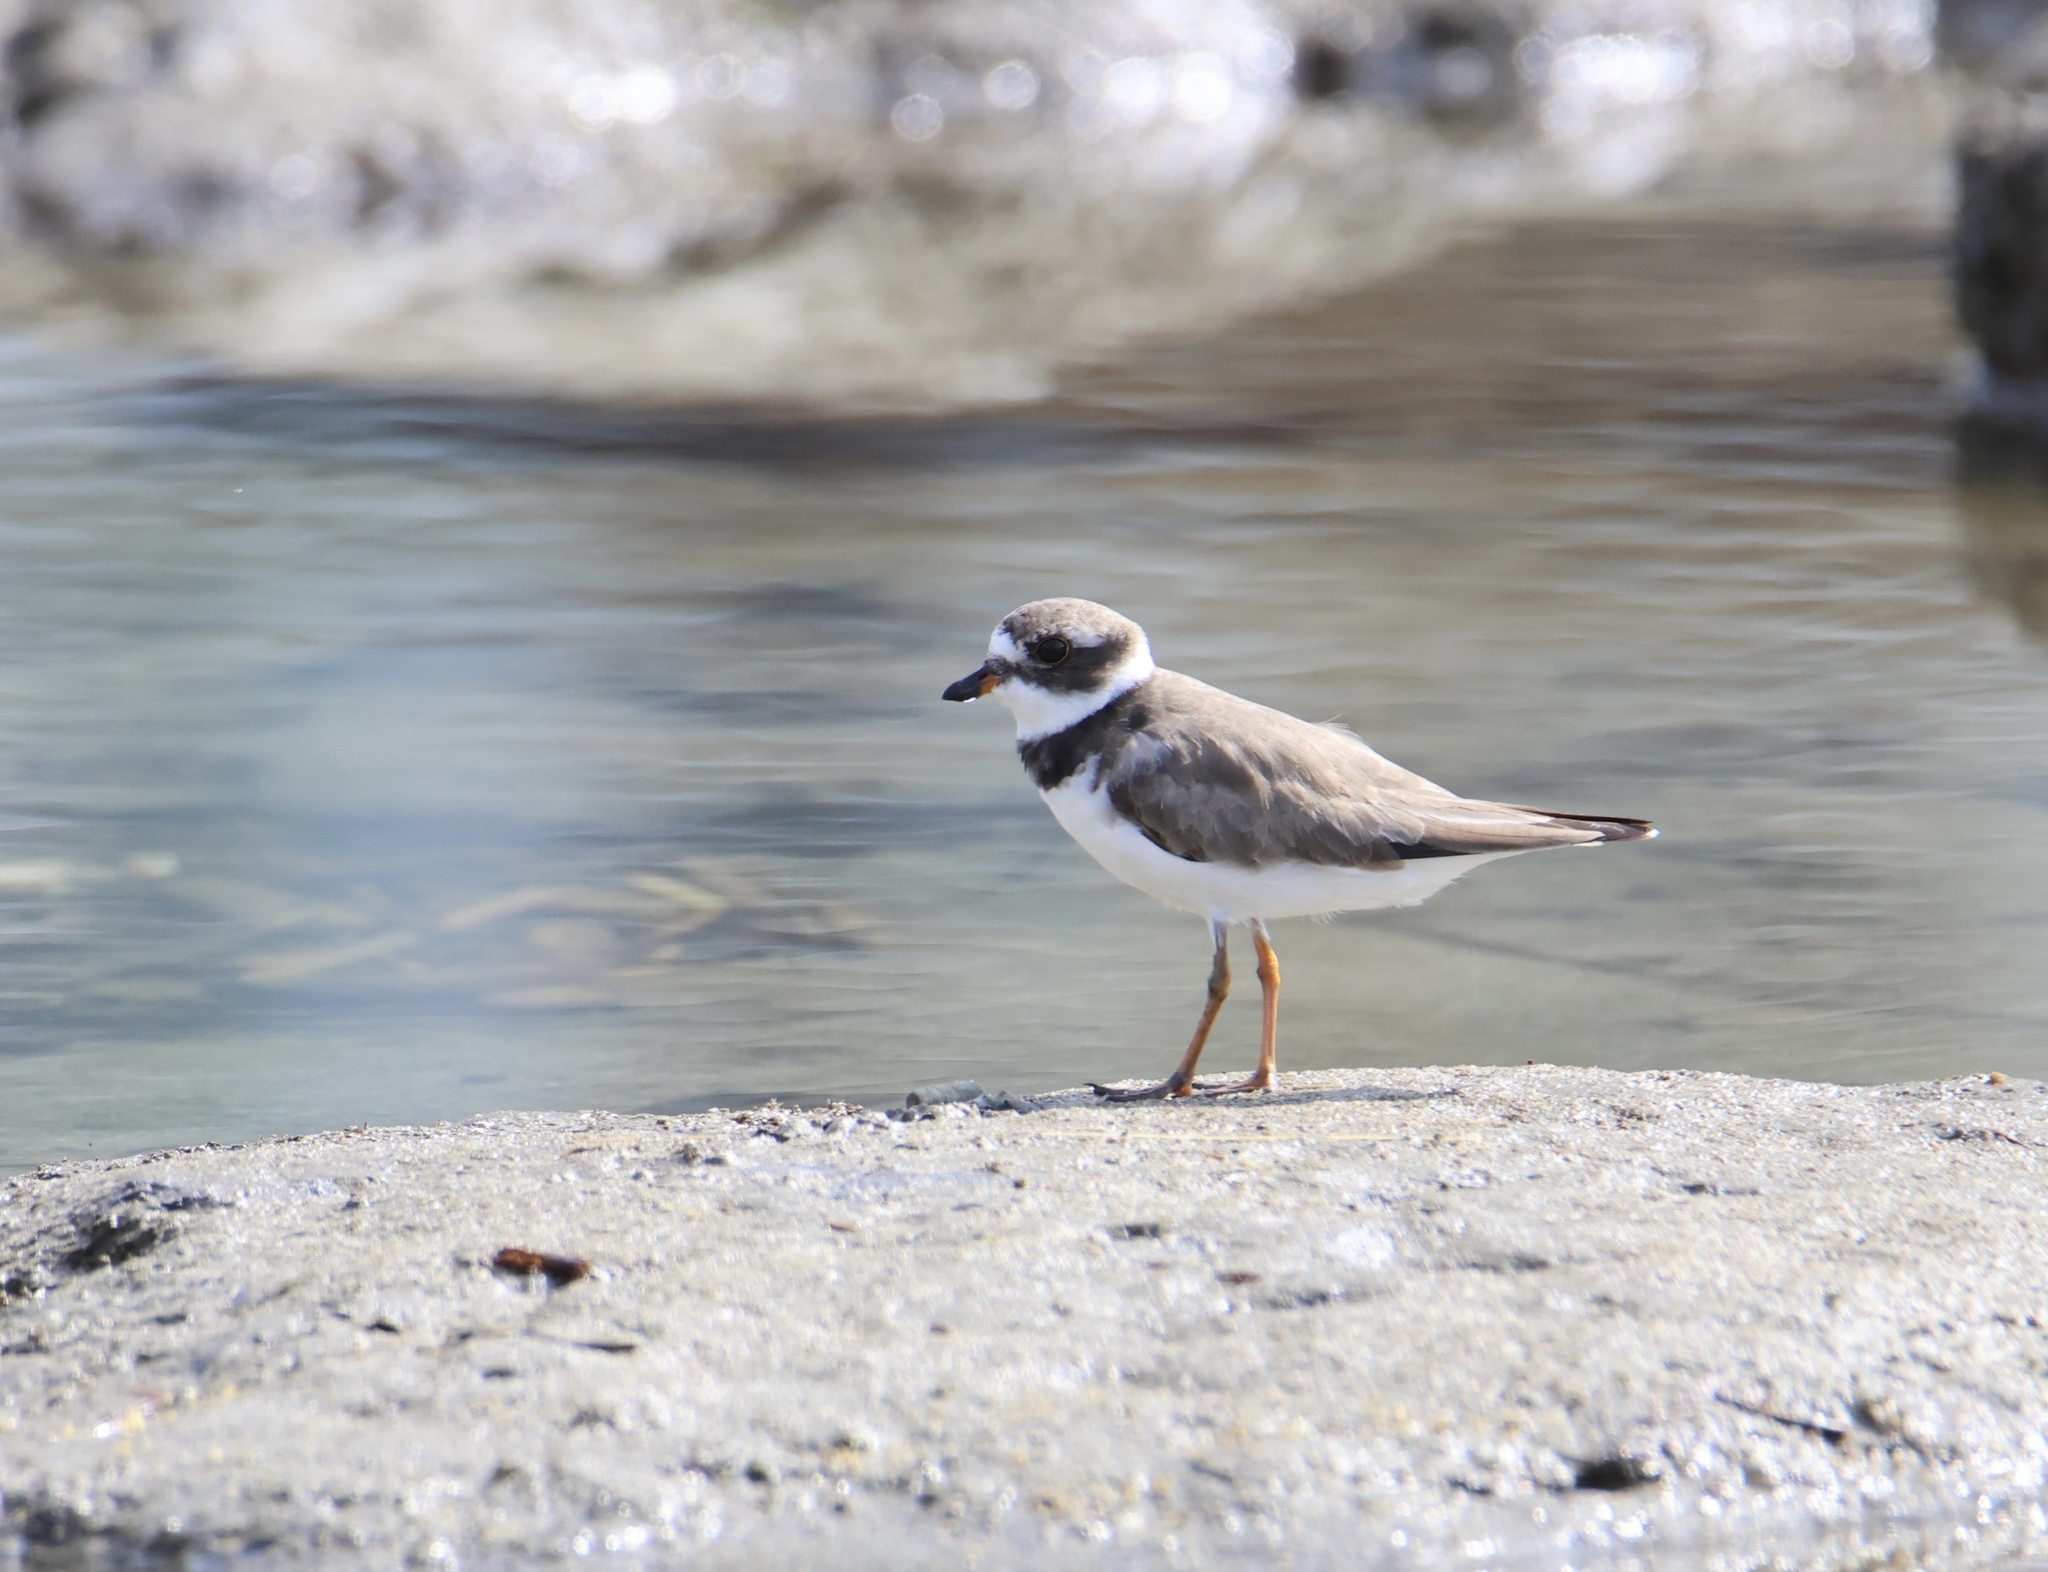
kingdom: Animalia
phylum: Chordata
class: Aves
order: Charadriiformes
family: Charadriidae
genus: Charadrius
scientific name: Charadrius semipalmatus
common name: Semipalmated plover
